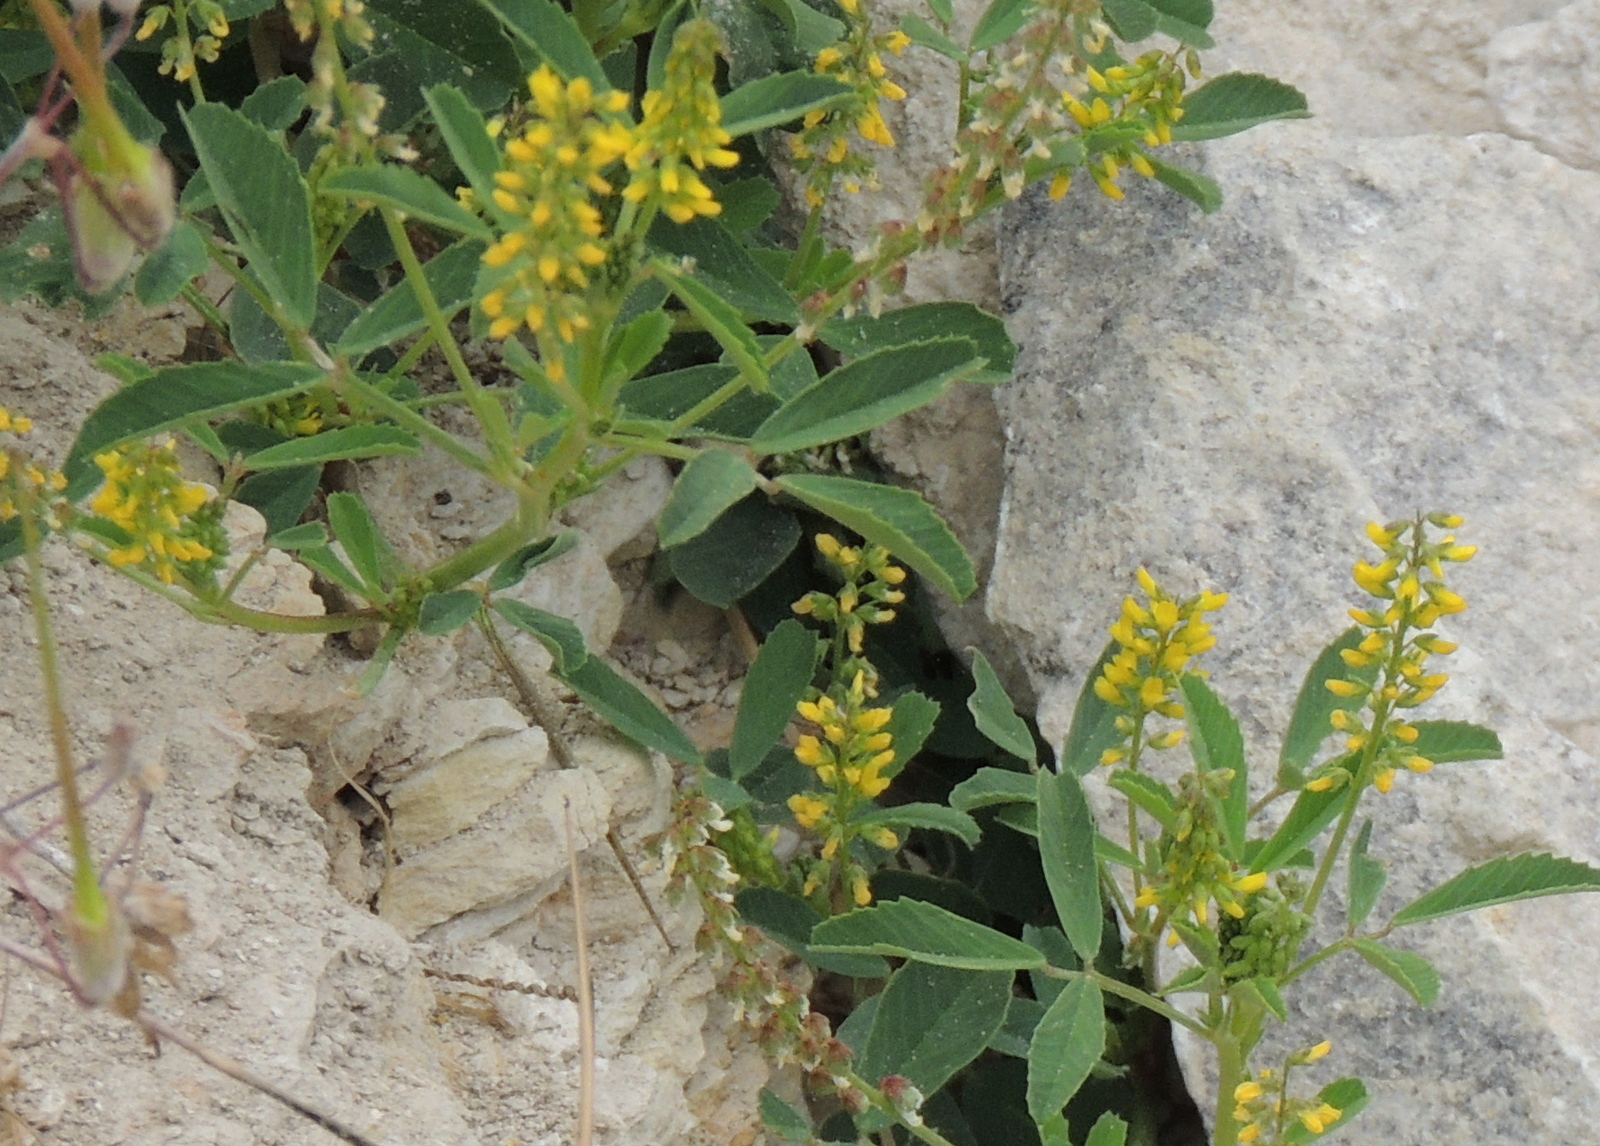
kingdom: Plantae
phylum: Tracheophyta
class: Magnoliopsida
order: Fabales
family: Fabaceae
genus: Melilotus
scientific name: Melilotus indicus
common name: Small melilot
